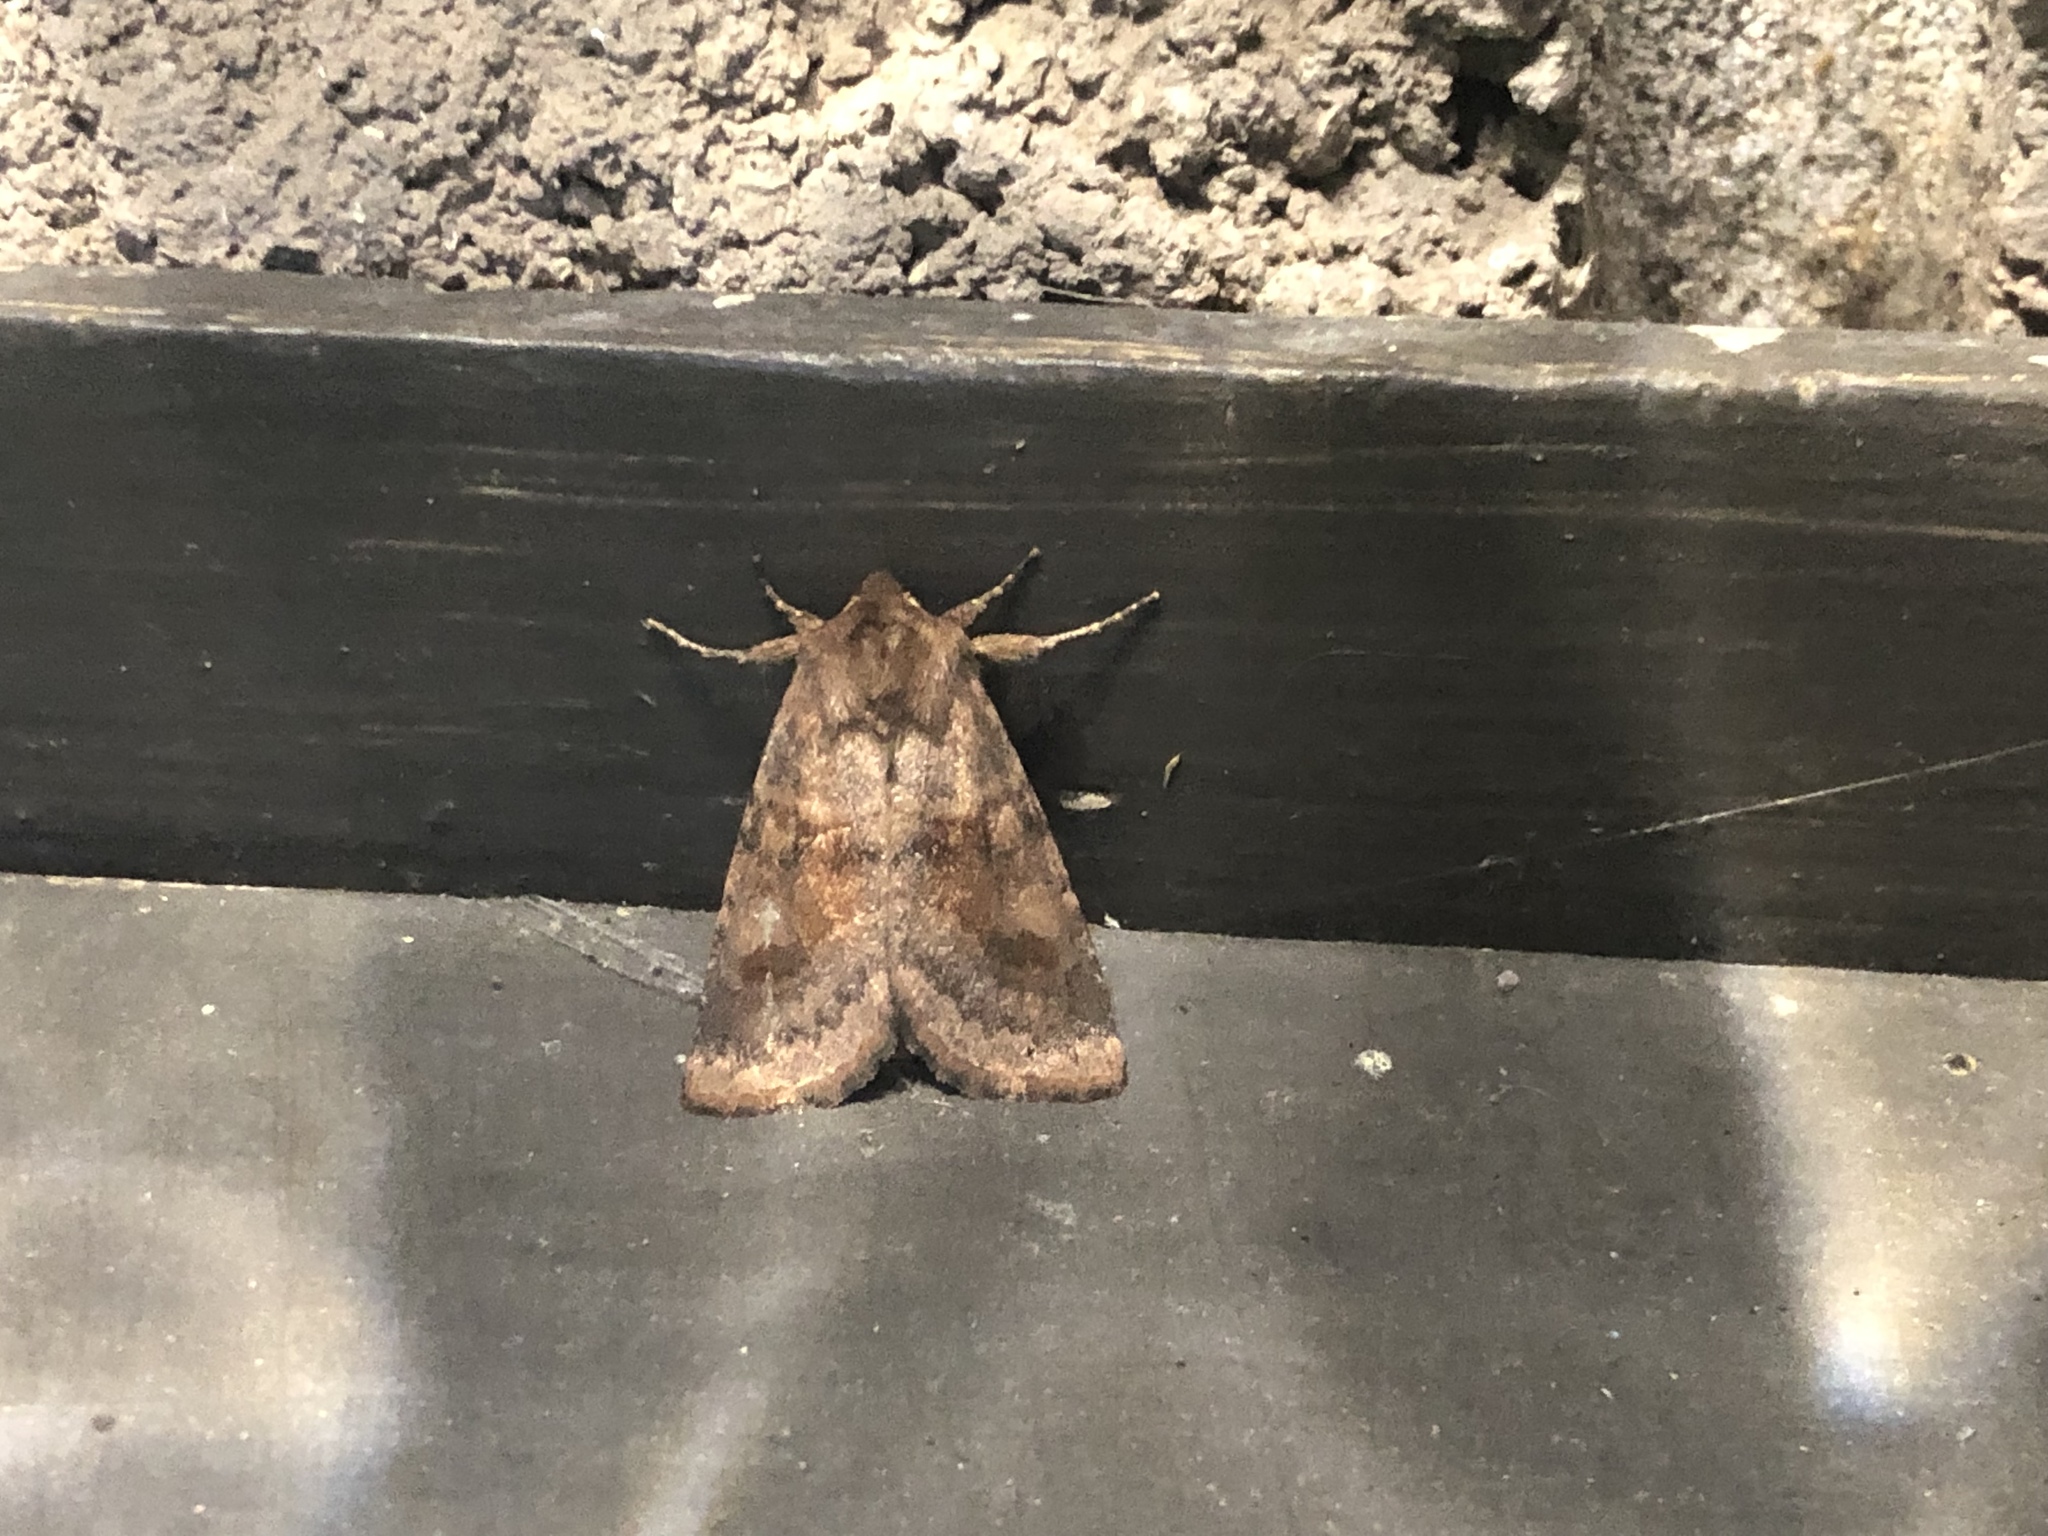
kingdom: Animalia
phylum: Arthropoda
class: Insecta
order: Lepidoptera
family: Noctuidae
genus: Nephelodes
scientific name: Nephelodes minians
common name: Bronzed cutworm
